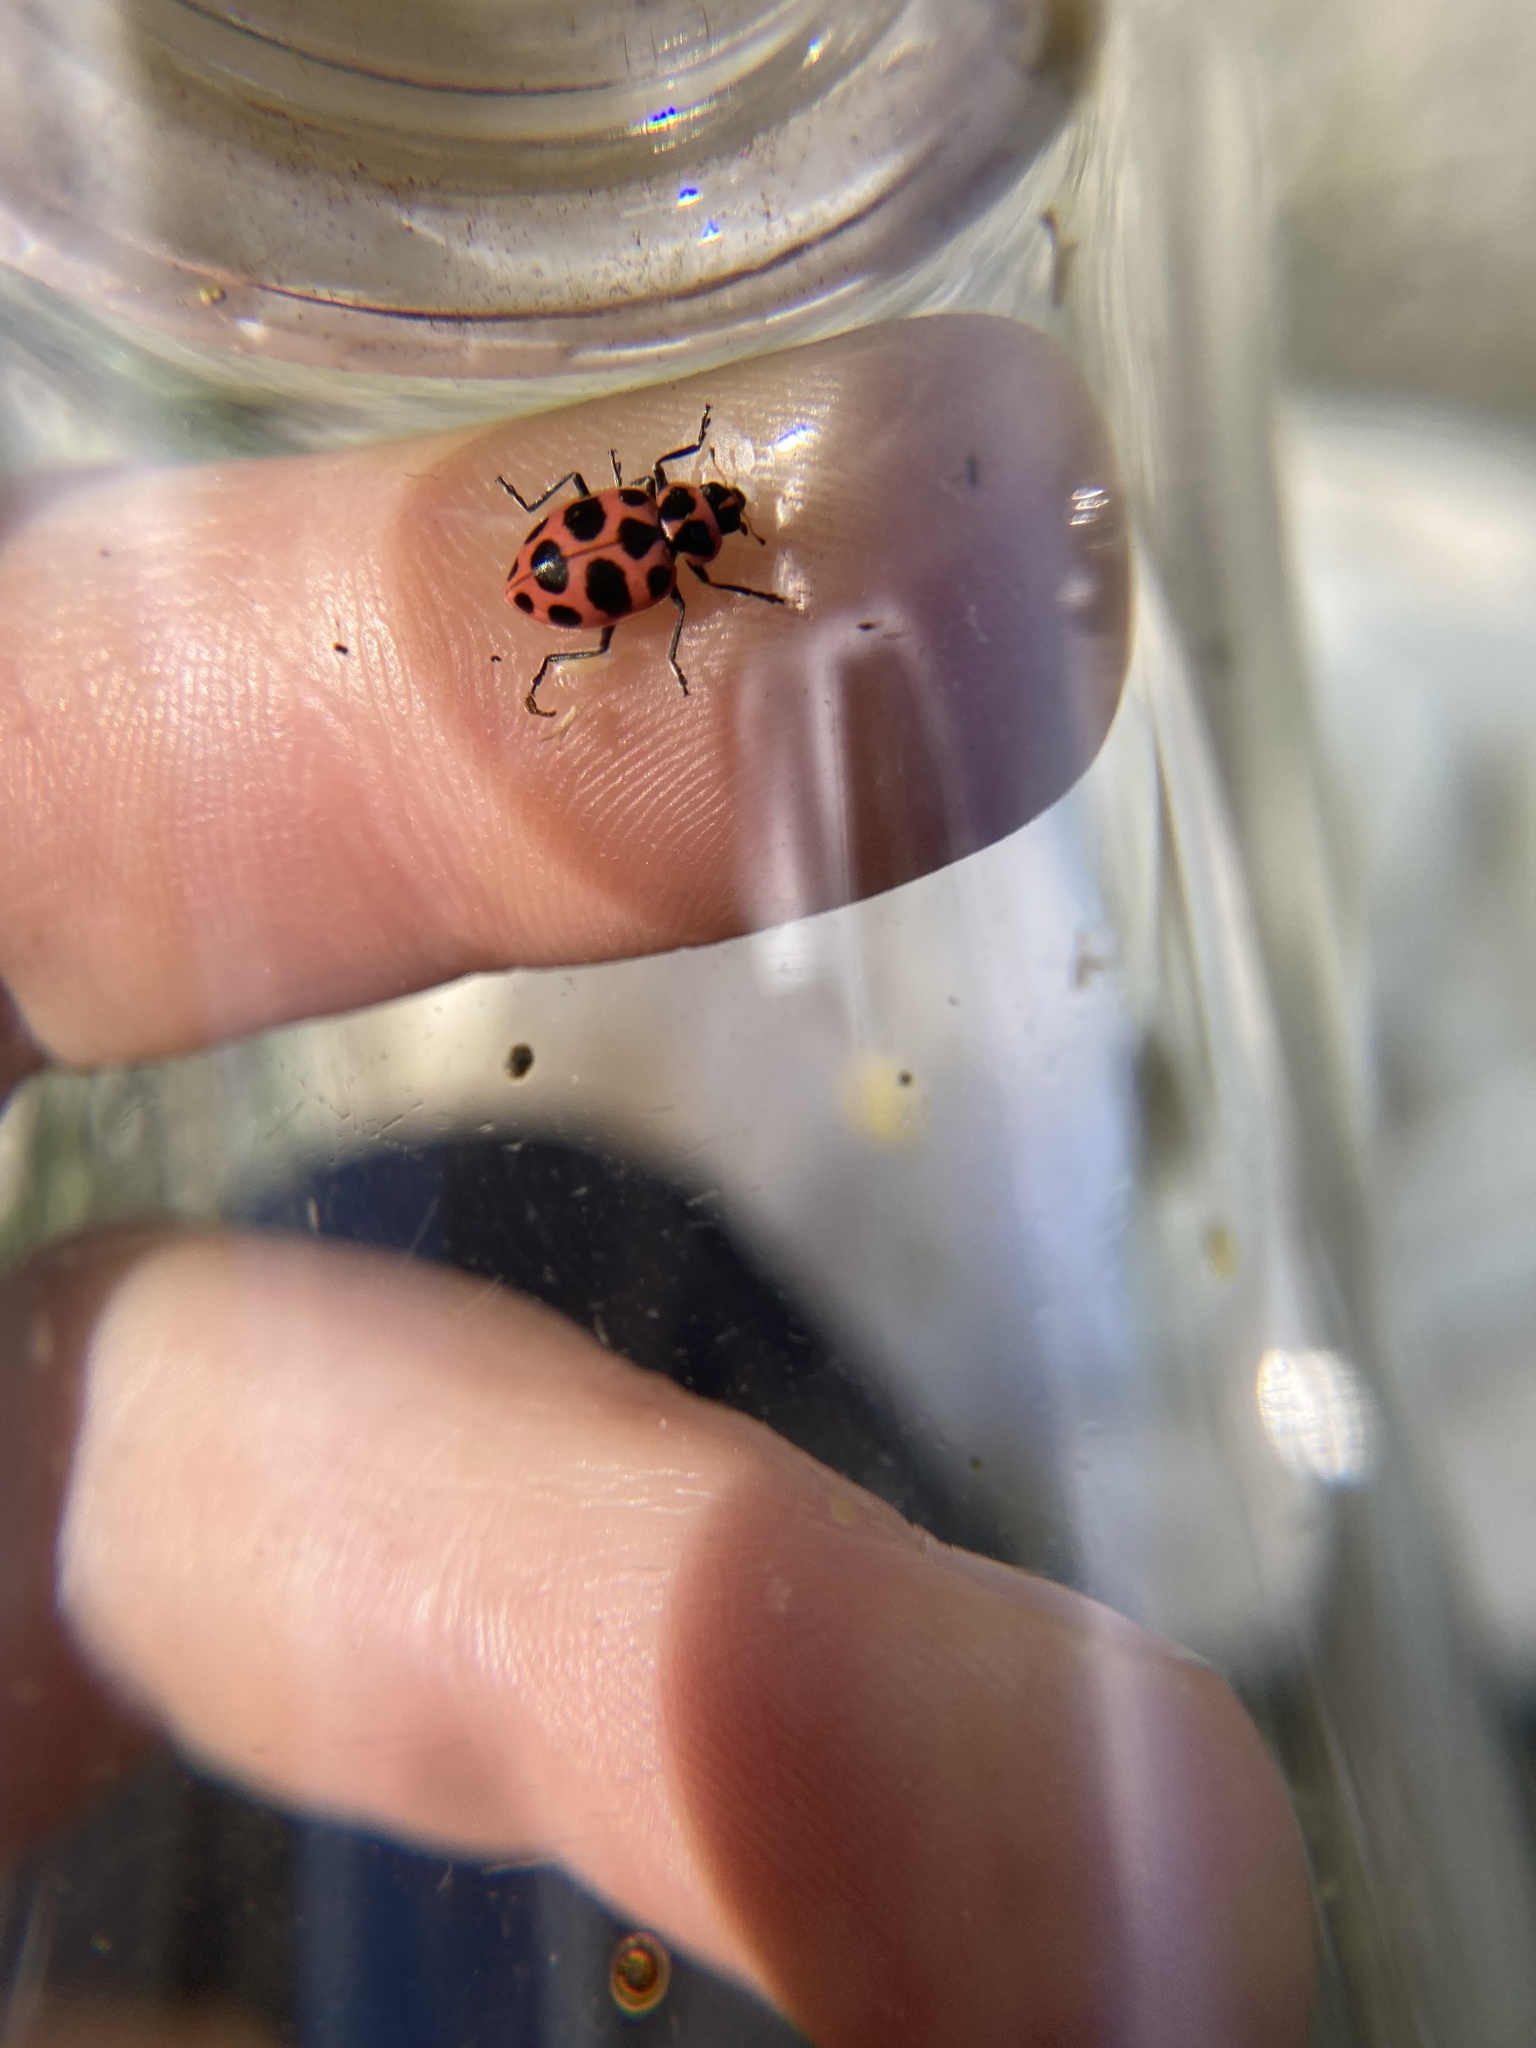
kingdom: Animalia
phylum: Arthropoda
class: Insecta
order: Coleoptera
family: Coccinellidae
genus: Coleomegilla
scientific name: Coleomegilla maculata
